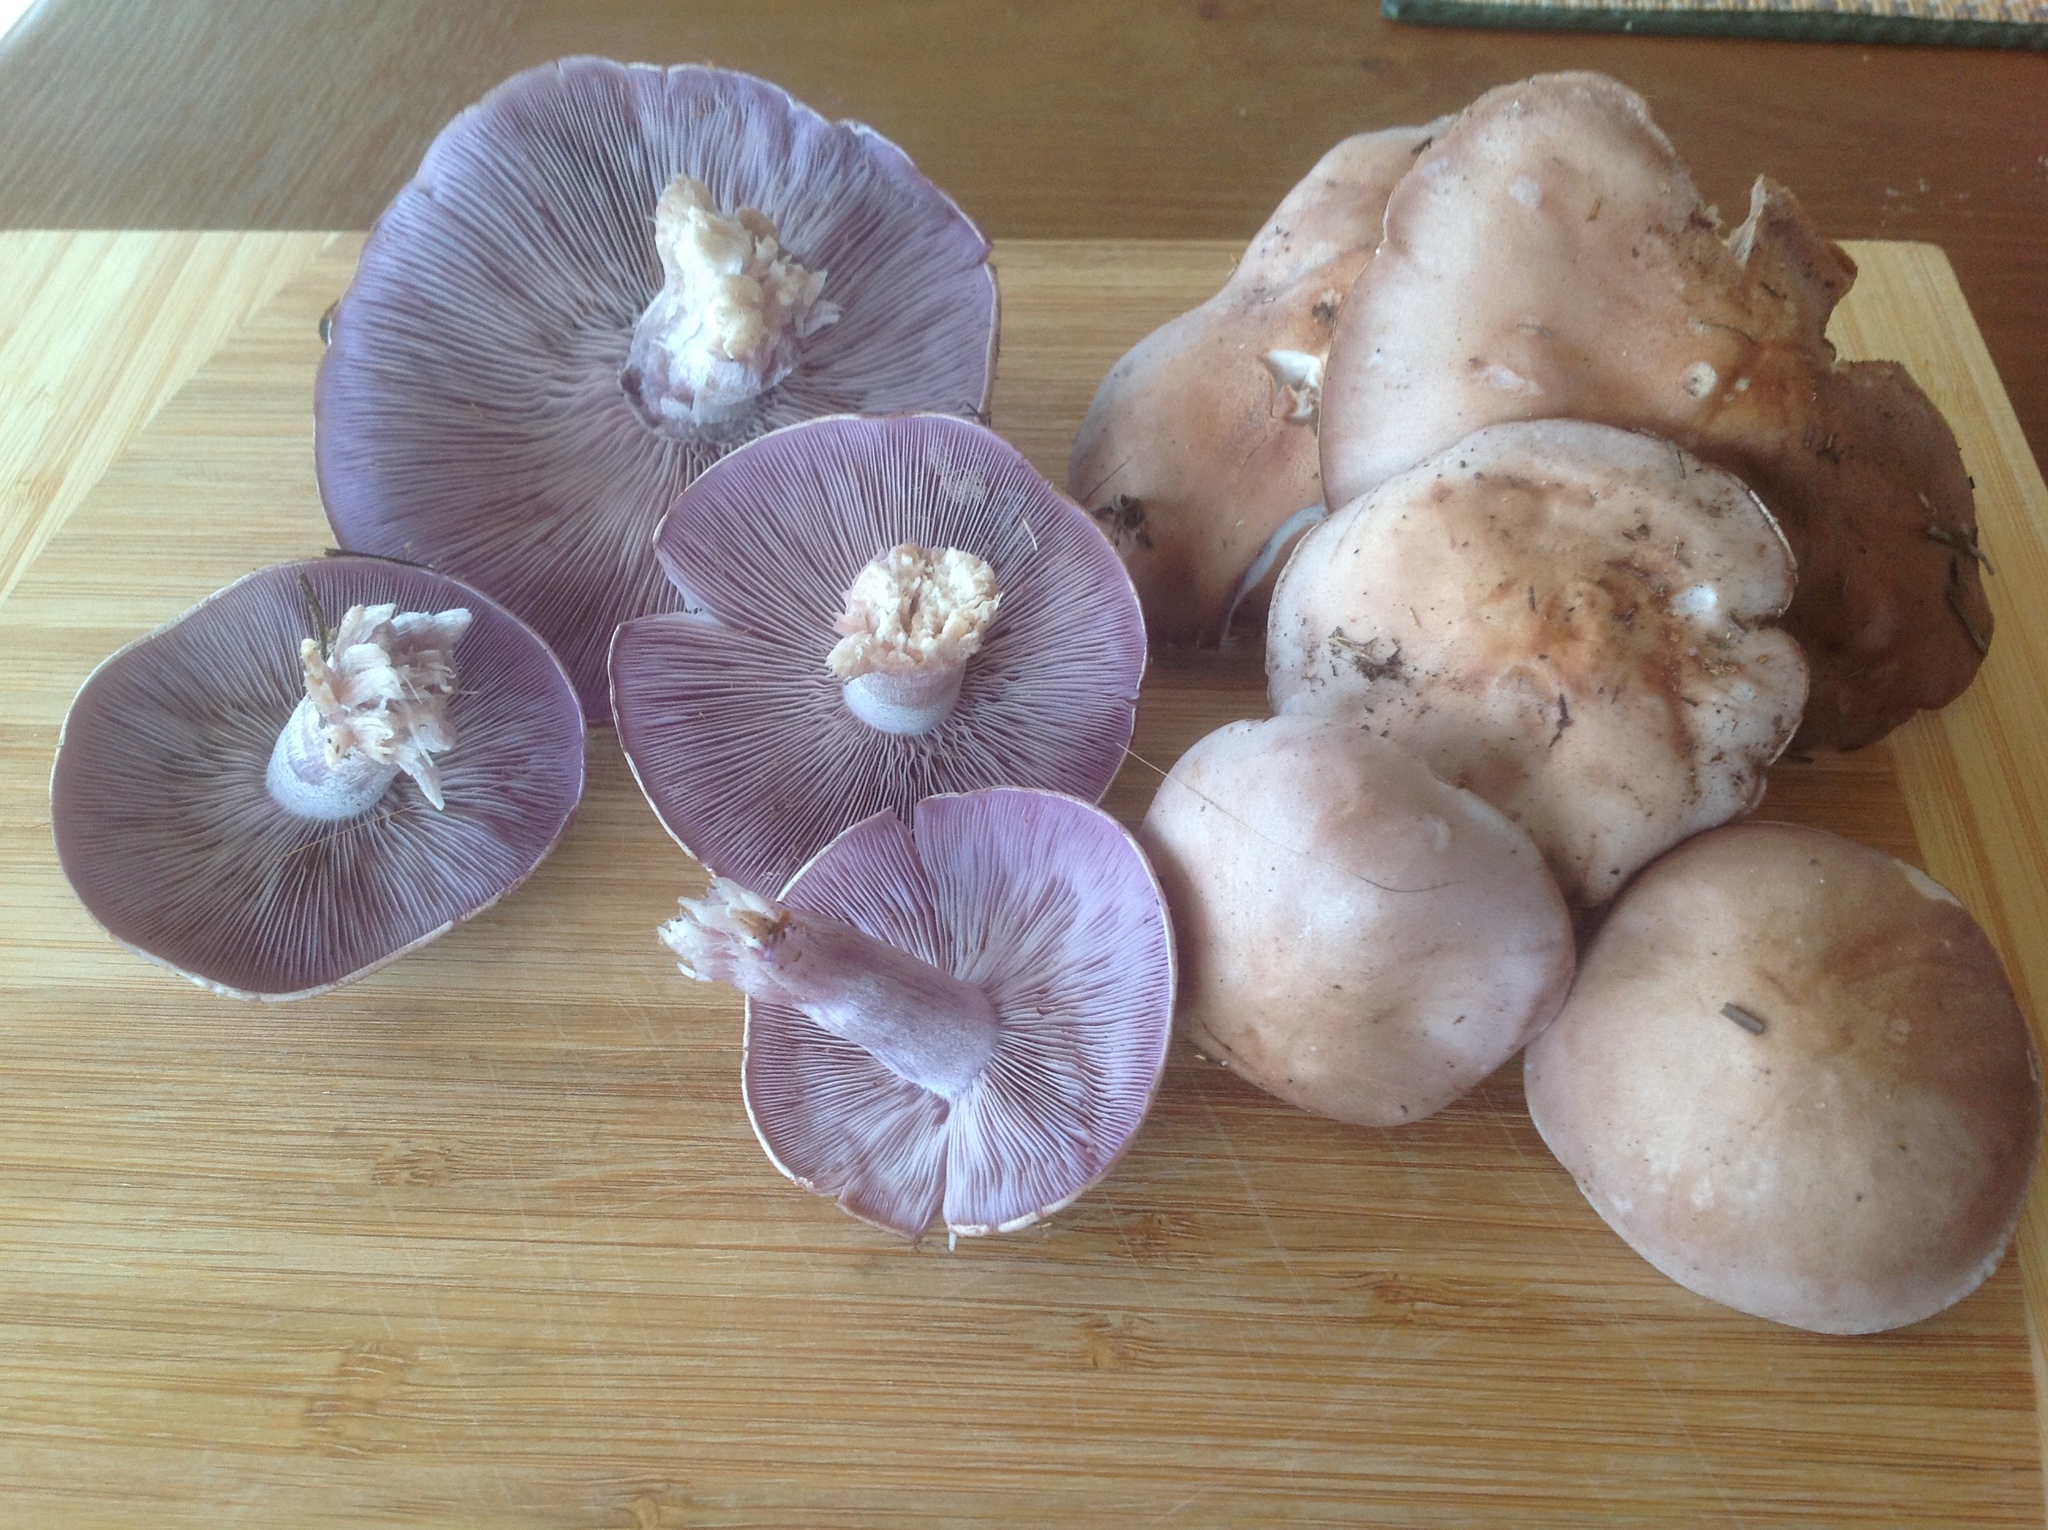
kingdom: Fungi
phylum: Basidiomycota
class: Agaricomycetes
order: Agaricales
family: Tricholomataceae
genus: Collybia
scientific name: Collybia
